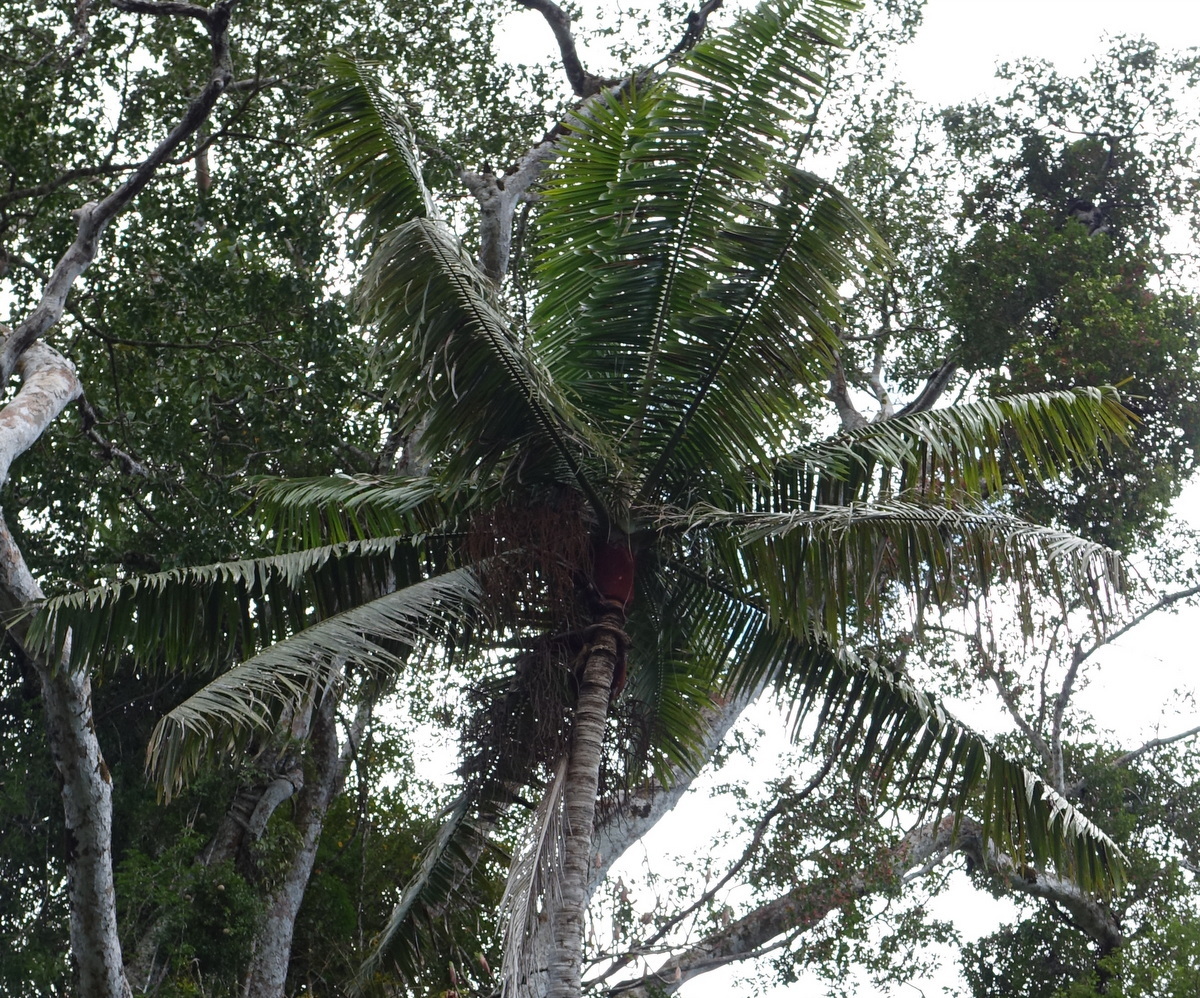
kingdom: Plantae
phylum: Tracheophyta
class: Liliopsida
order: Arecales
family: Arecaceae
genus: Dypsis
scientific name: Dypsis lastelliana
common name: Redneck palm
